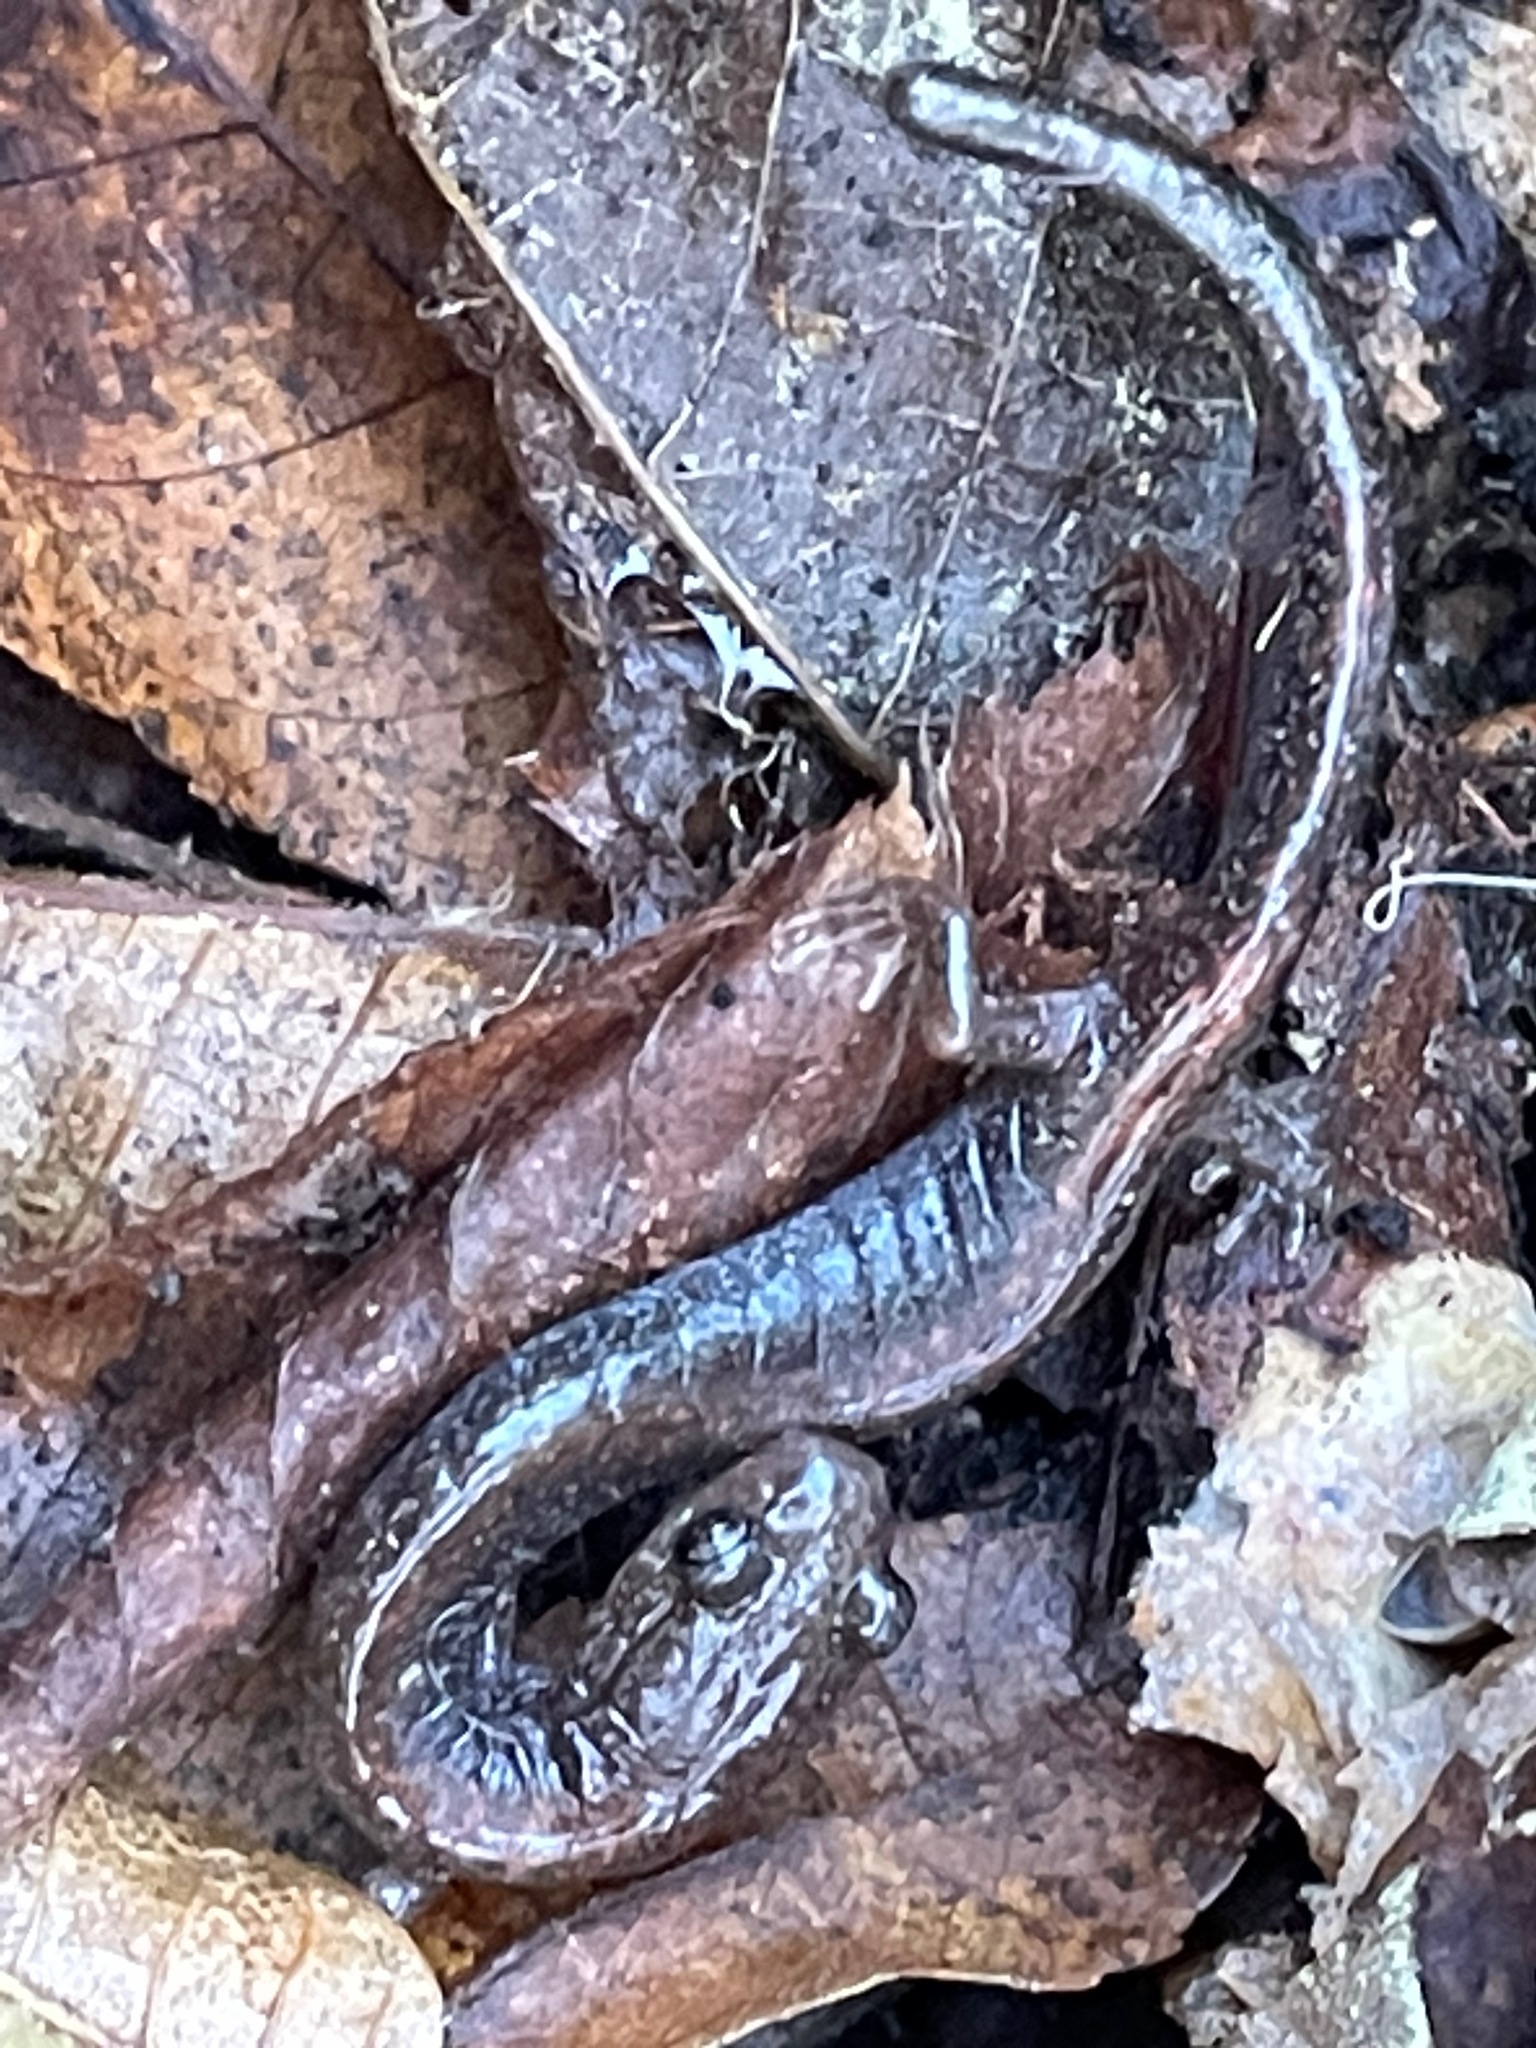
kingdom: Animalia
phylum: Chordata
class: Amphibia
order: Caudata
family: Plethodontidae
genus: Plethodon
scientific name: Plethodon cinereus
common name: Redback salamander
